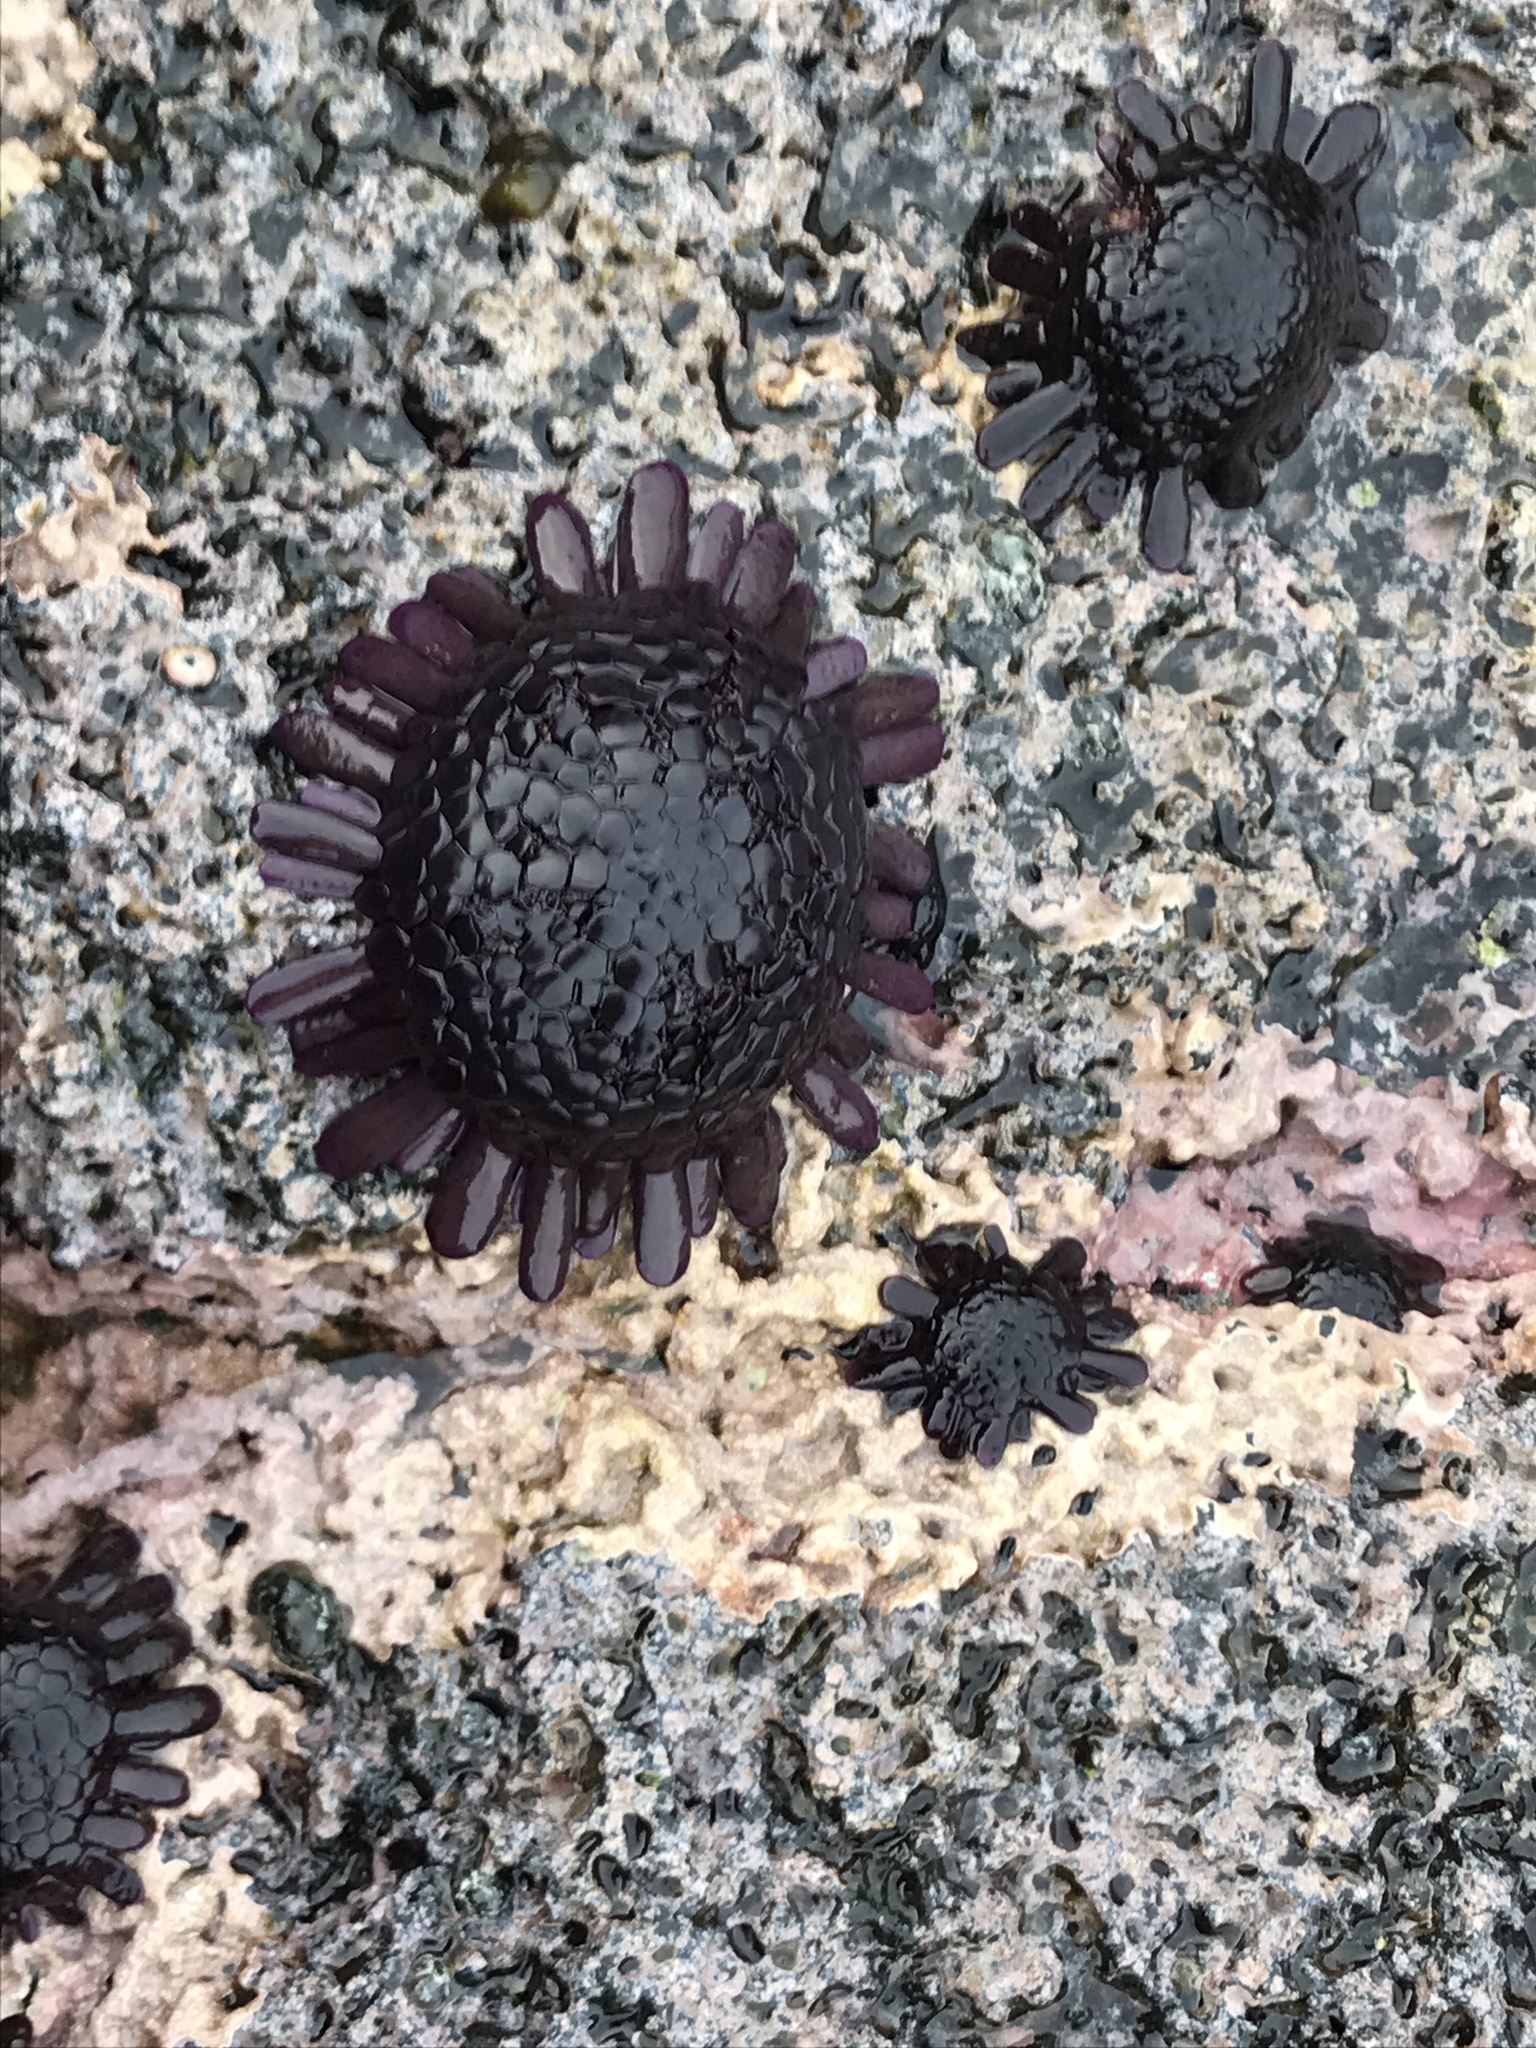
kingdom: Animalia
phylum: Echinodermata
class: Echinoidea
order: Camarodonta
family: Echinometridae
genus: Colobocentrotus
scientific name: Colobocentrotus atratus
